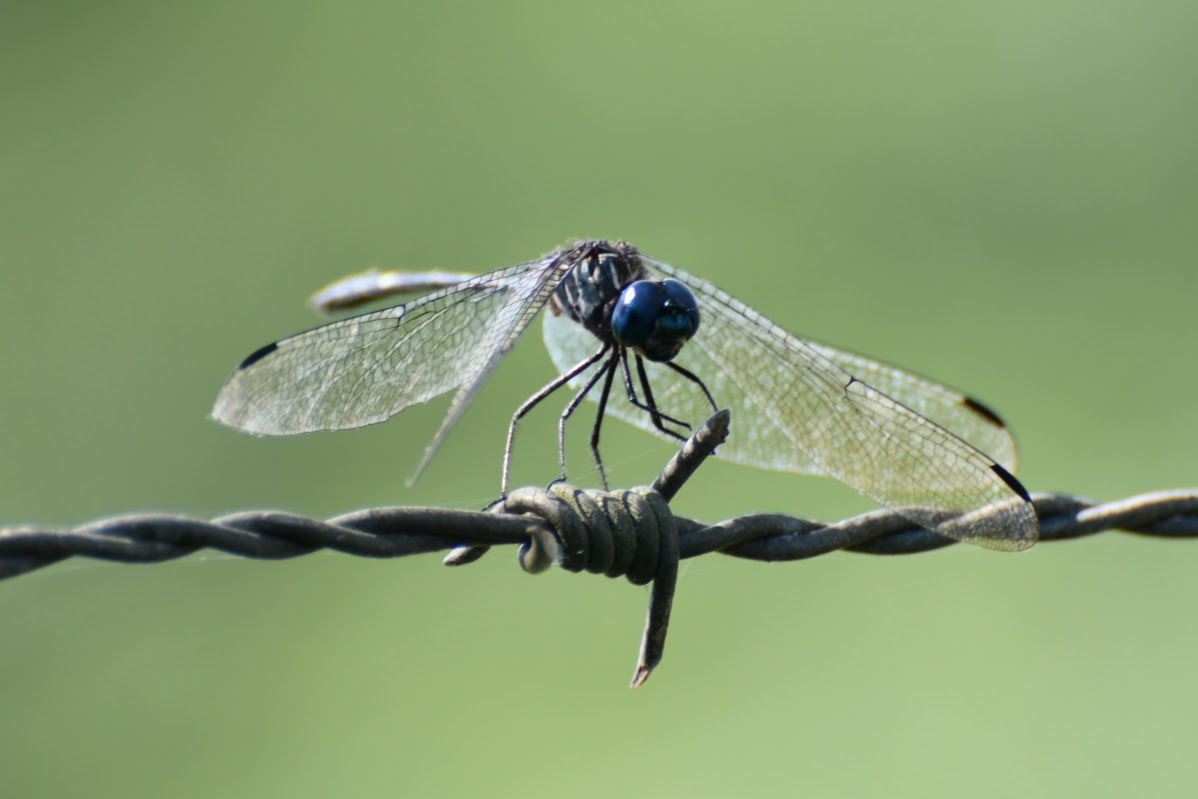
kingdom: Animalia
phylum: Arthropoda
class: Insecta
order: Odonata
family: Libellulidae
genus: Dythemis
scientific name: Dythemis nigra
